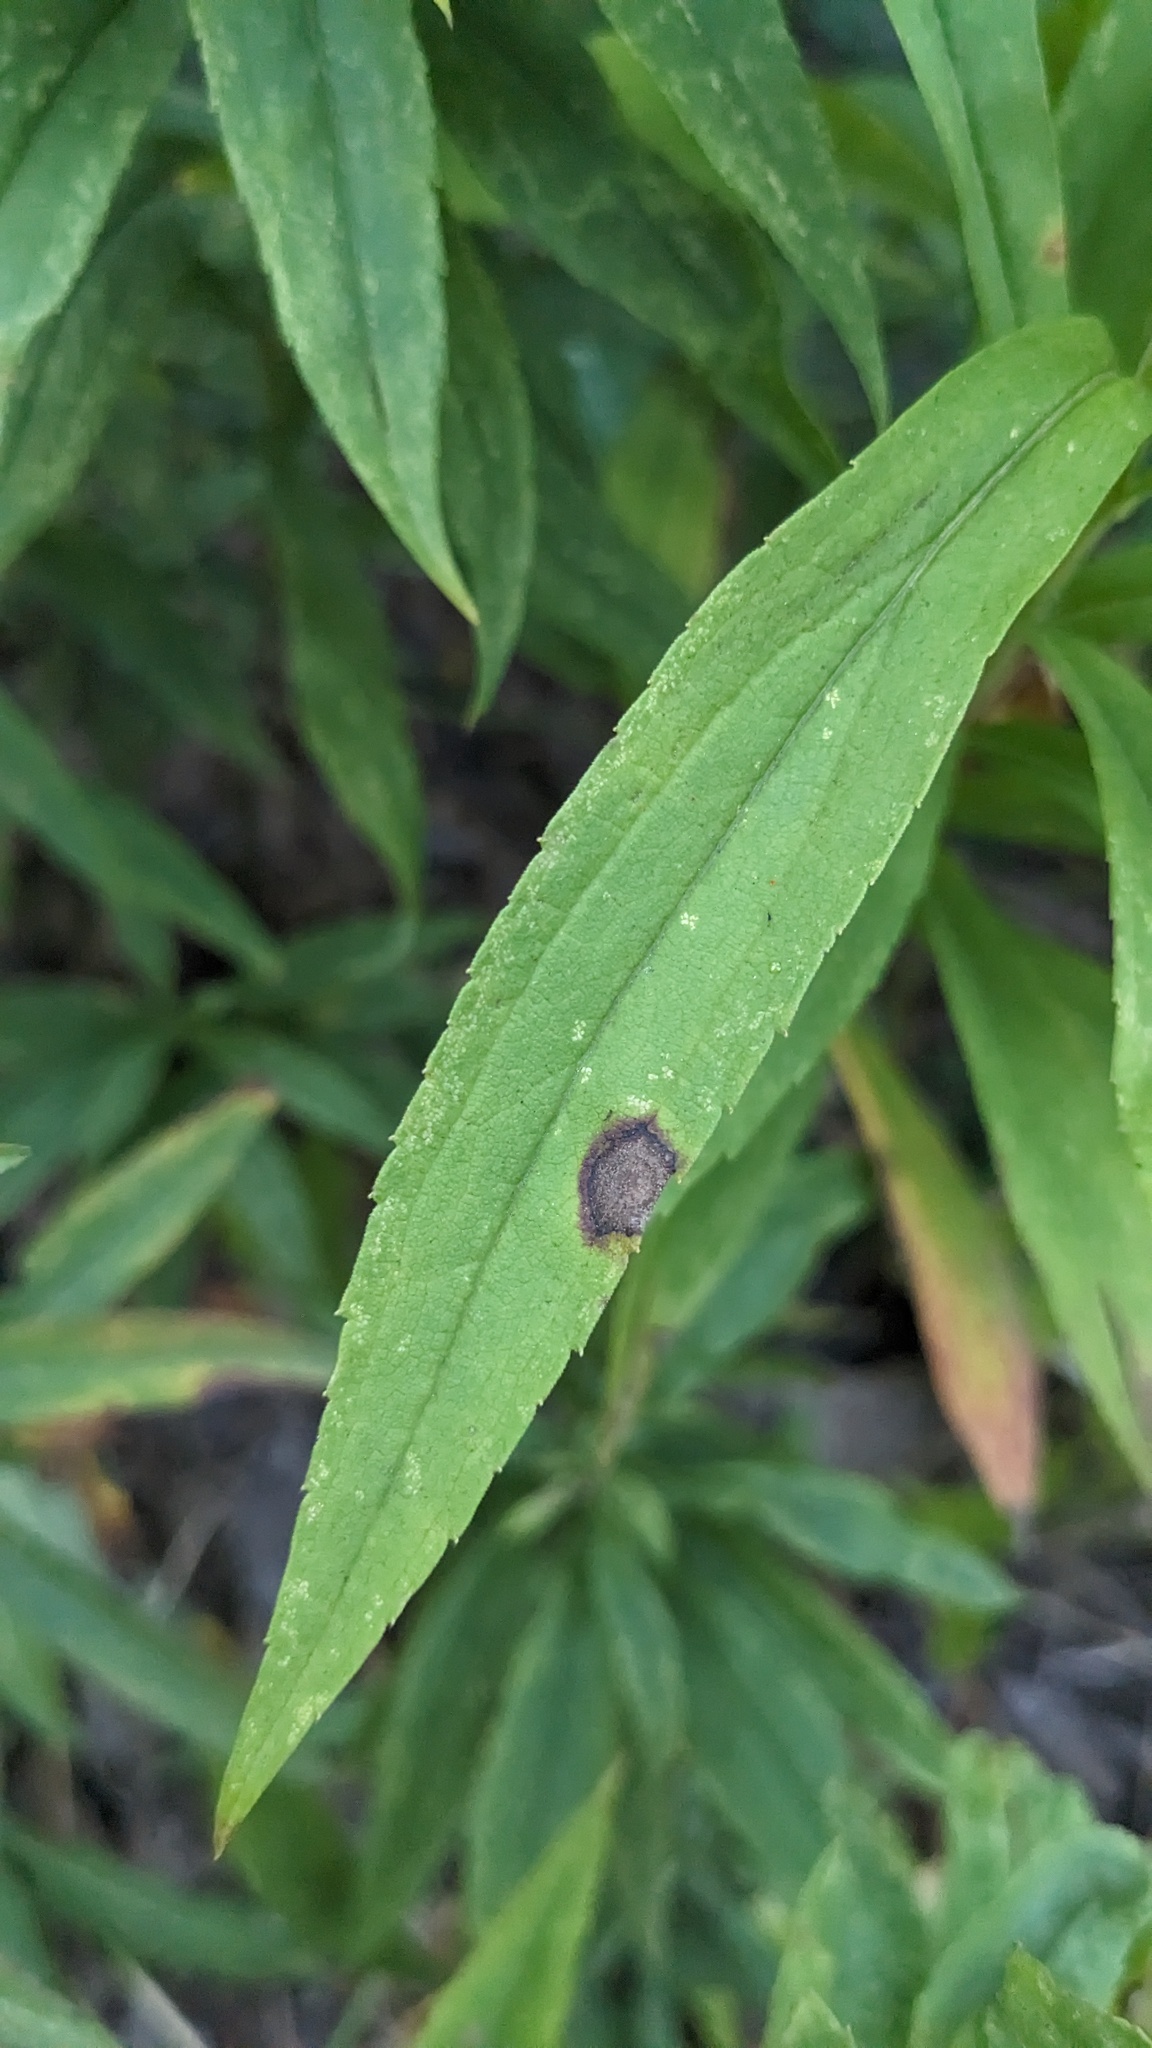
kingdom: Animalia
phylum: Arthropoda
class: Insecta
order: Diptera
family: Cecidomyiidae
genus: Asteromyia
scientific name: Asteromyia carbonifera
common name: Carbonifera goldenrod gall midge
